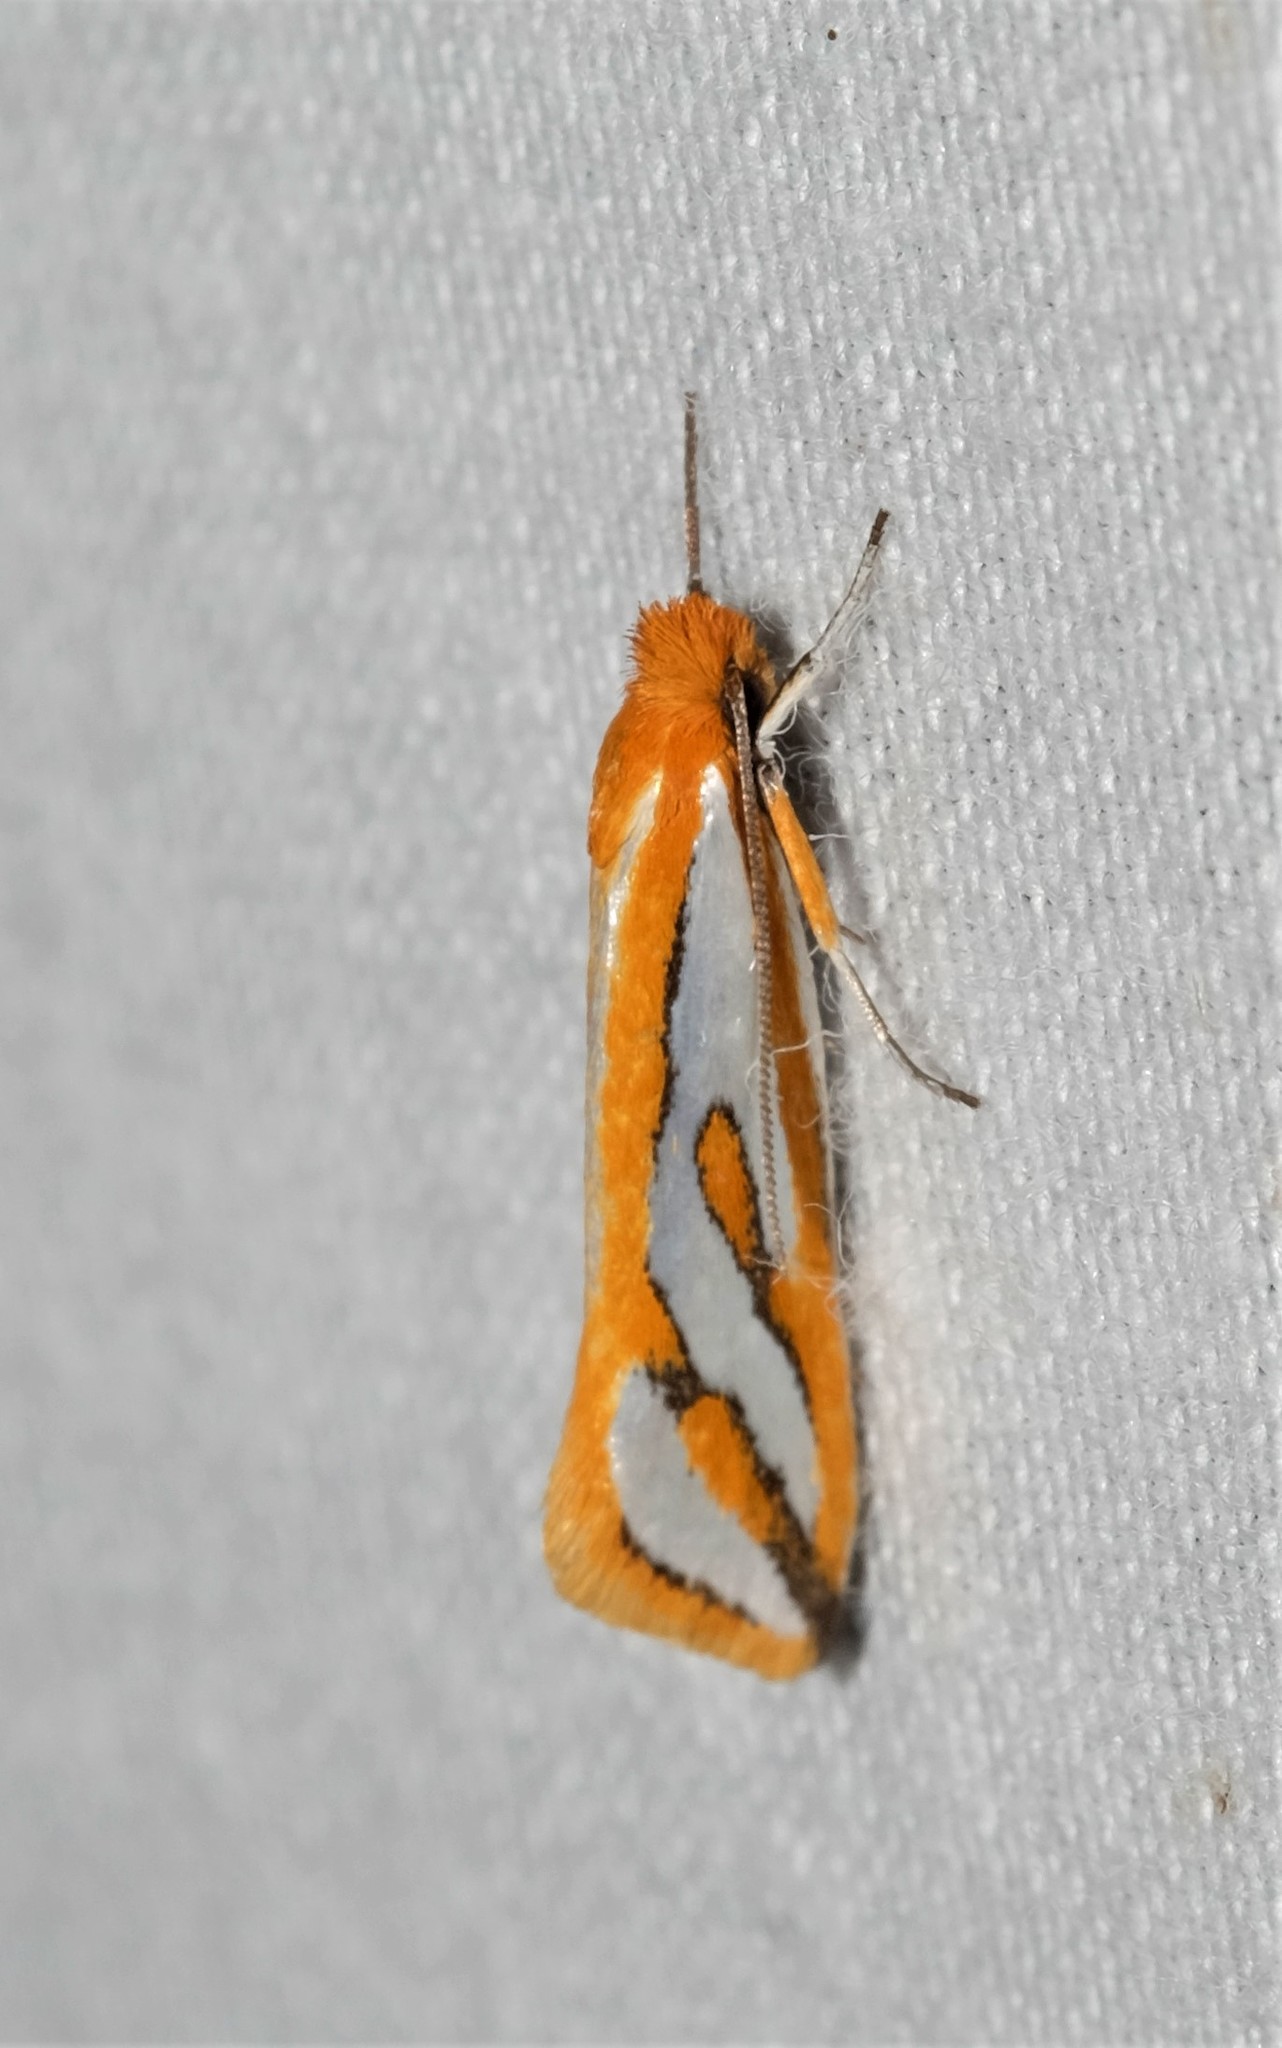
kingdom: Animalia
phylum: Arthropoda
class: Insecta
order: Lepidoptera
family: Depressariidae
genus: Thudaca
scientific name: Thudaca haplonota
